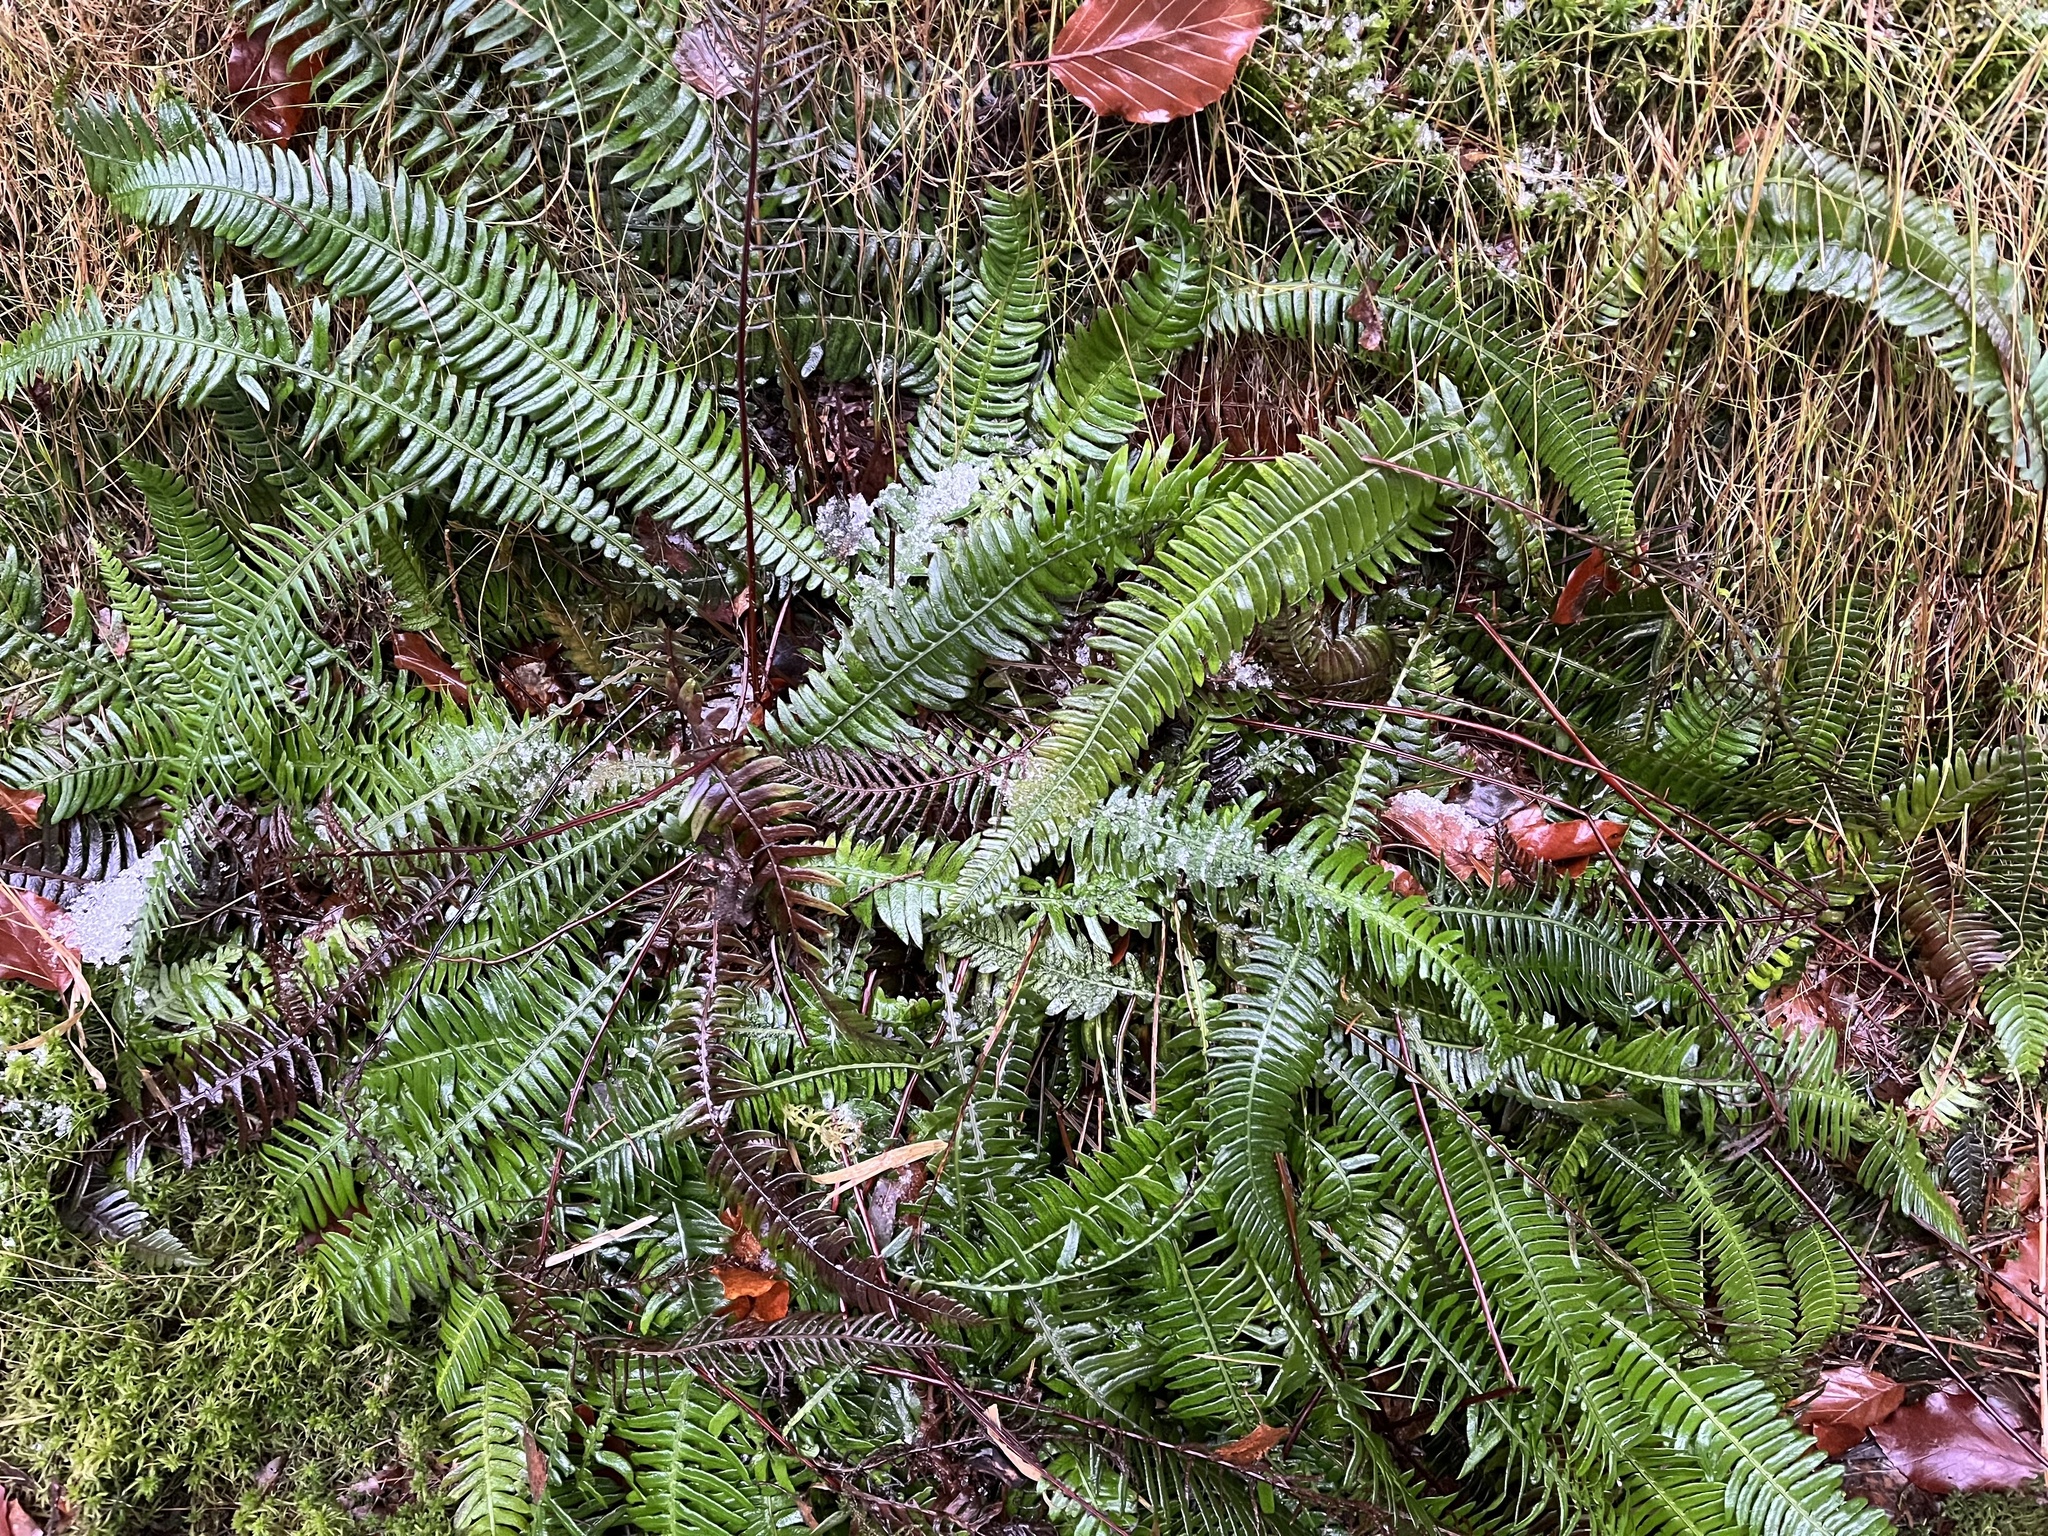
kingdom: Plantae
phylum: Tracheophyta
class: Polypodiopsida
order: Polypodiales
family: Blechnaceae
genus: Struthiopteris
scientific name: Struthiopteris spicant
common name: Deer fern
